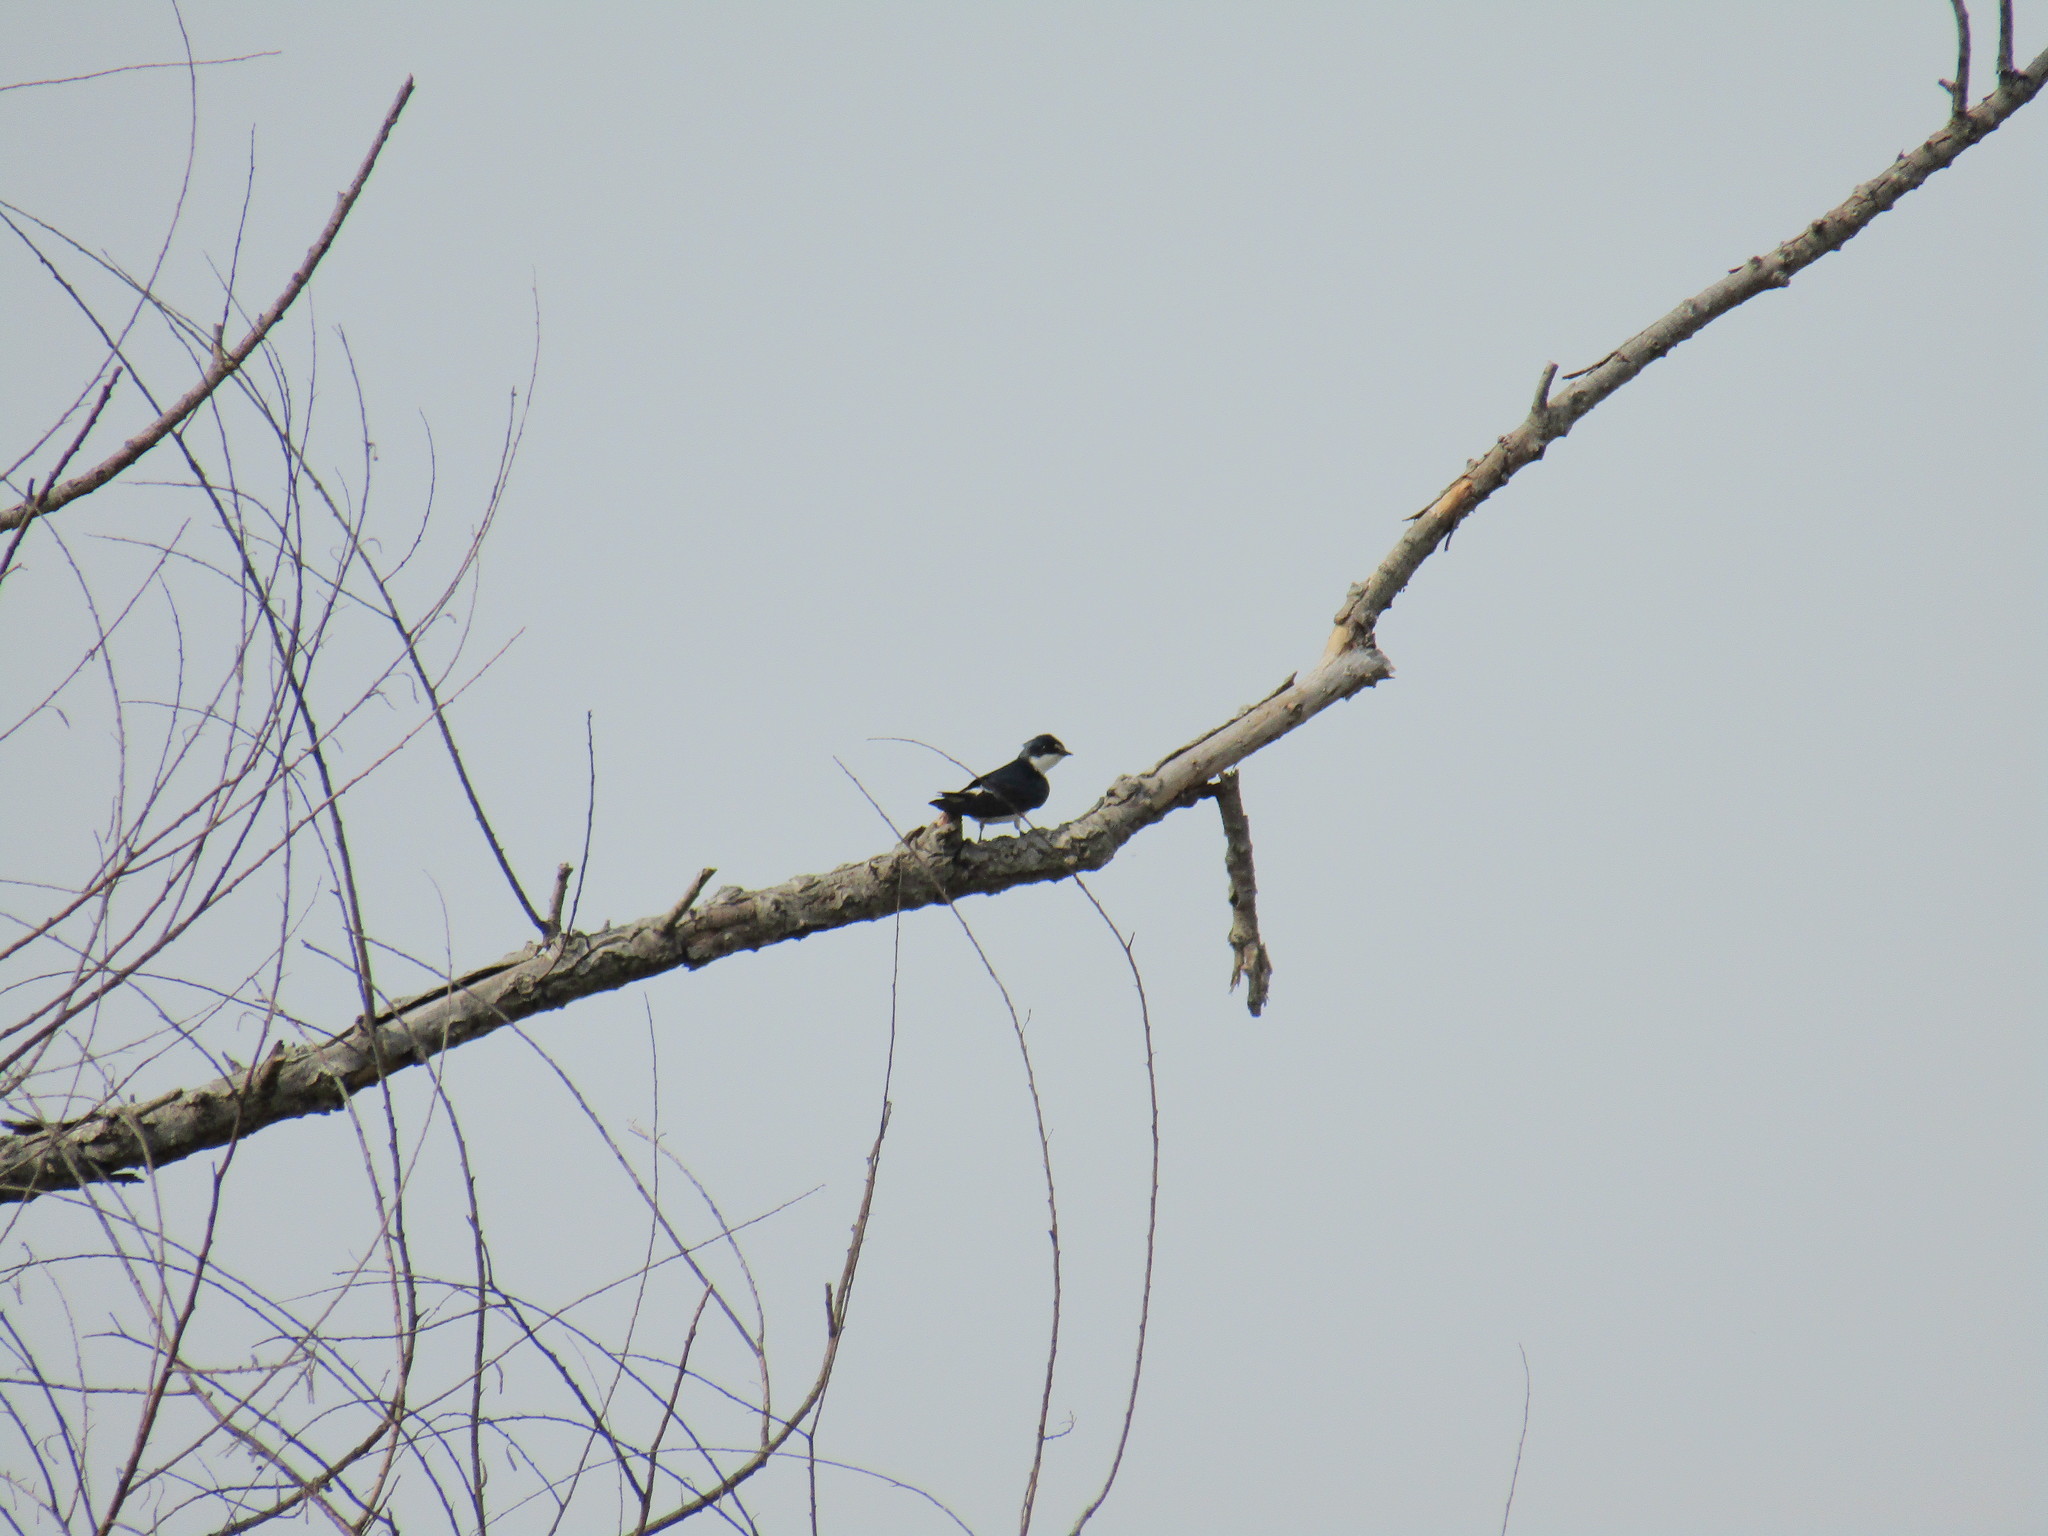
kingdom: Animalia
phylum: Chordata
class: Aves
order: Passeriformes
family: Hirundinidae
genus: Tachycineta
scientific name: Tachycineta leucorrhoa
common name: White-rumped swallow
